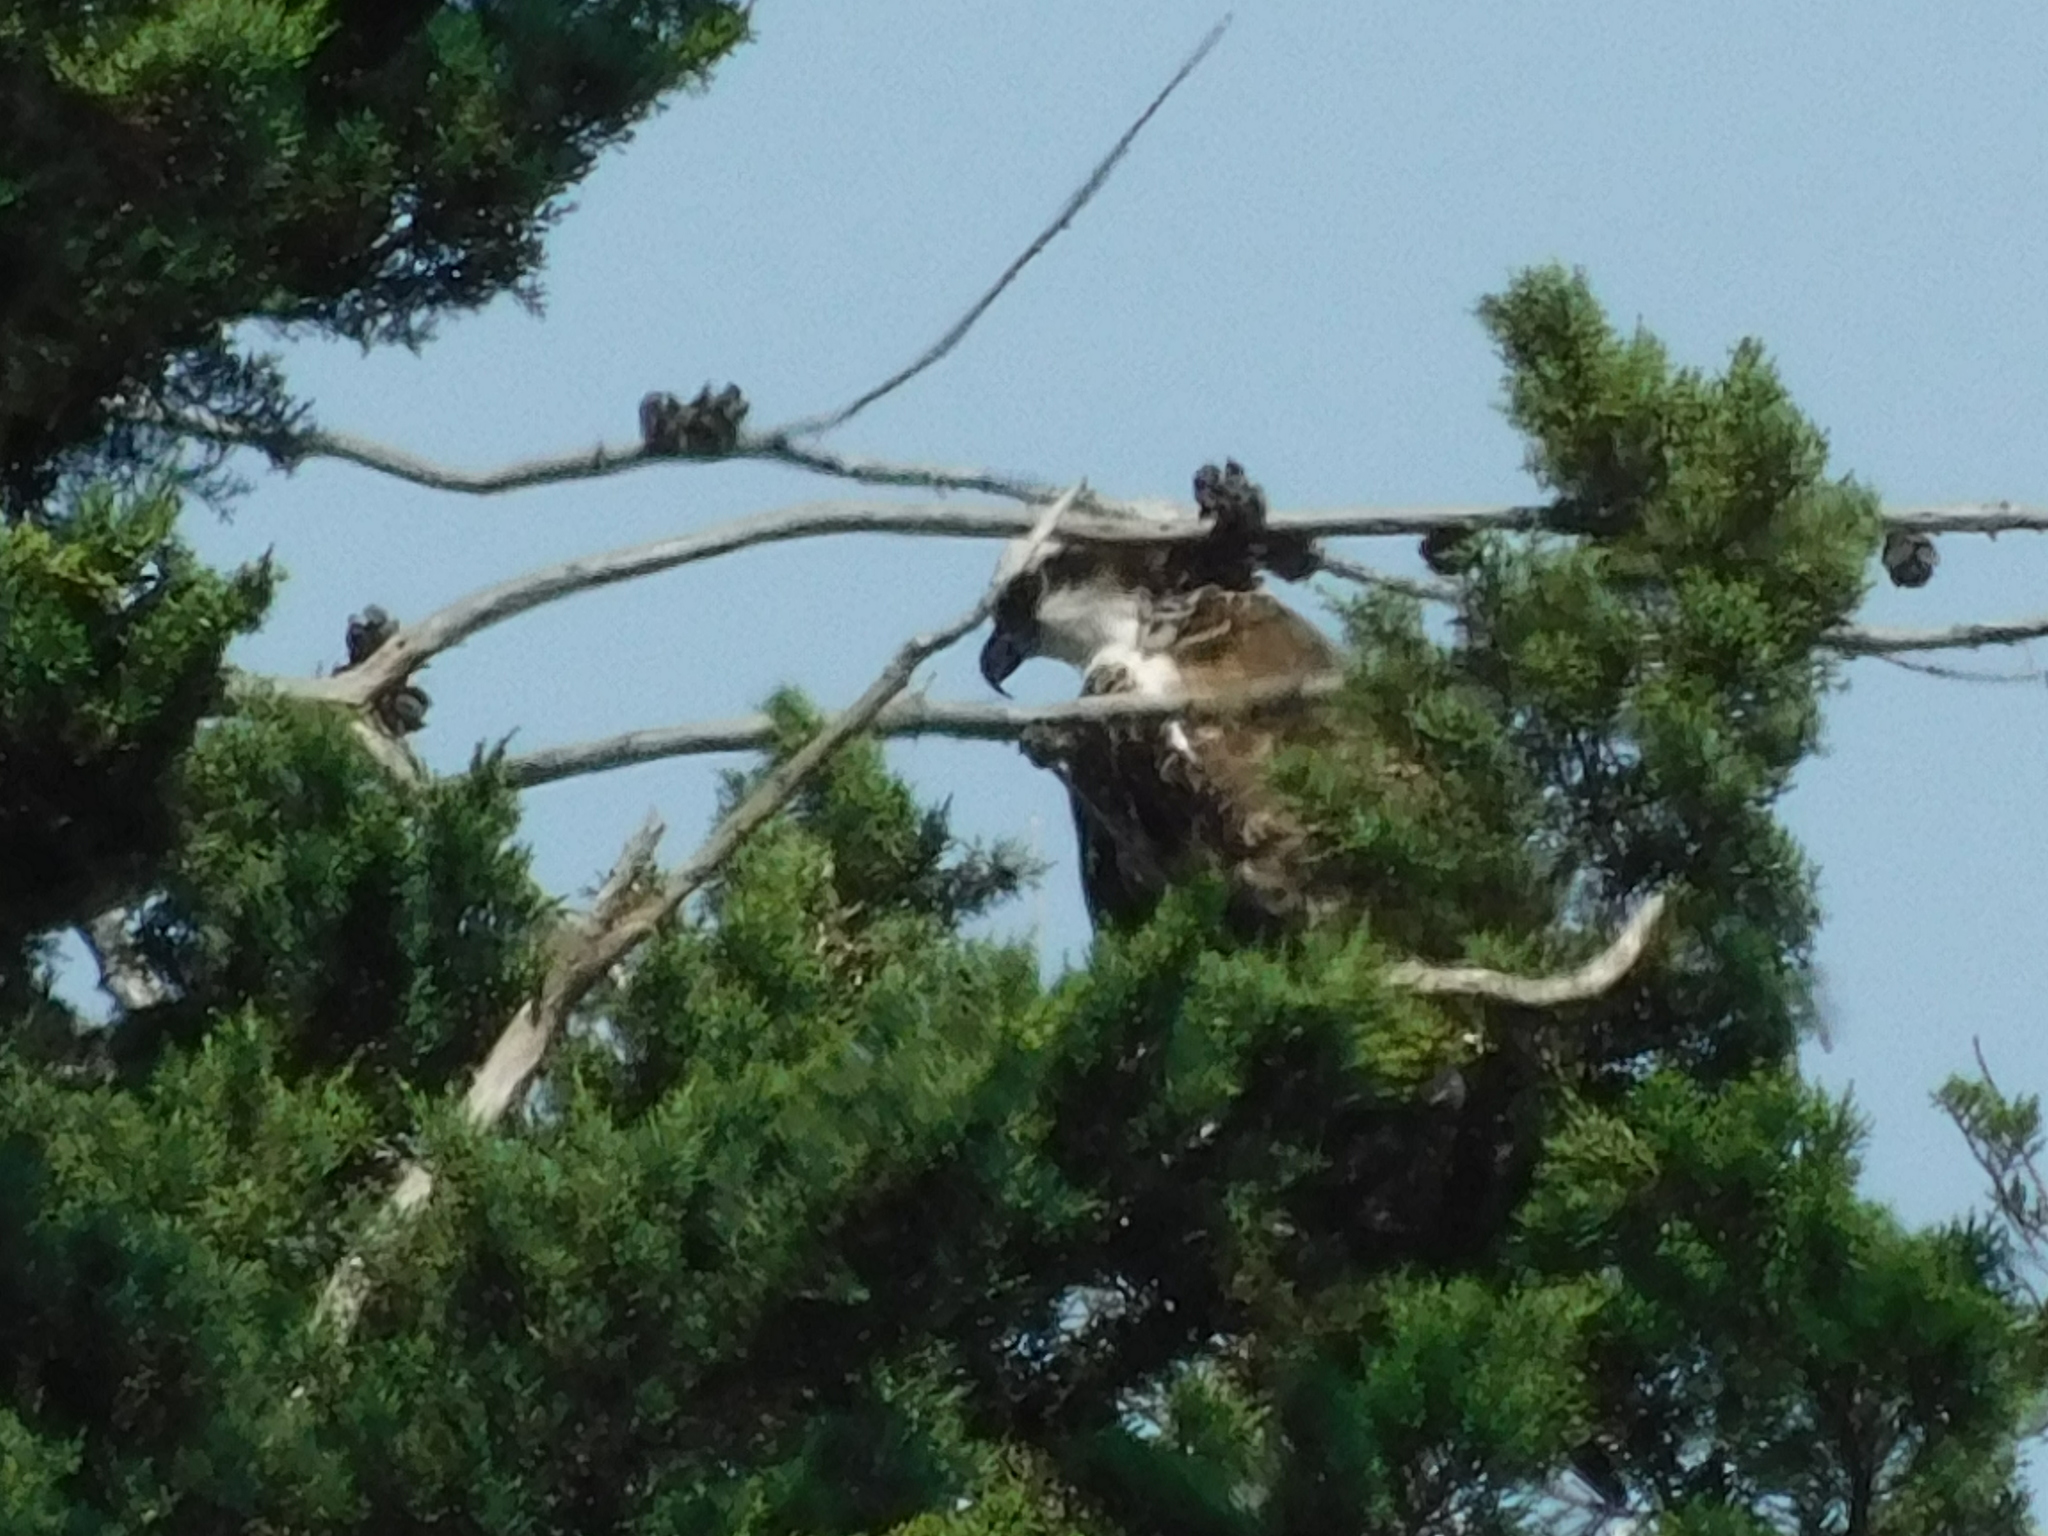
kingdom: Animalia
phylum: Chordata
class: Aves
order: Accipitriformes
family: Pandionidae
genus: Pandion
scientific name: Pandion haliaetus
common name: Osprey
